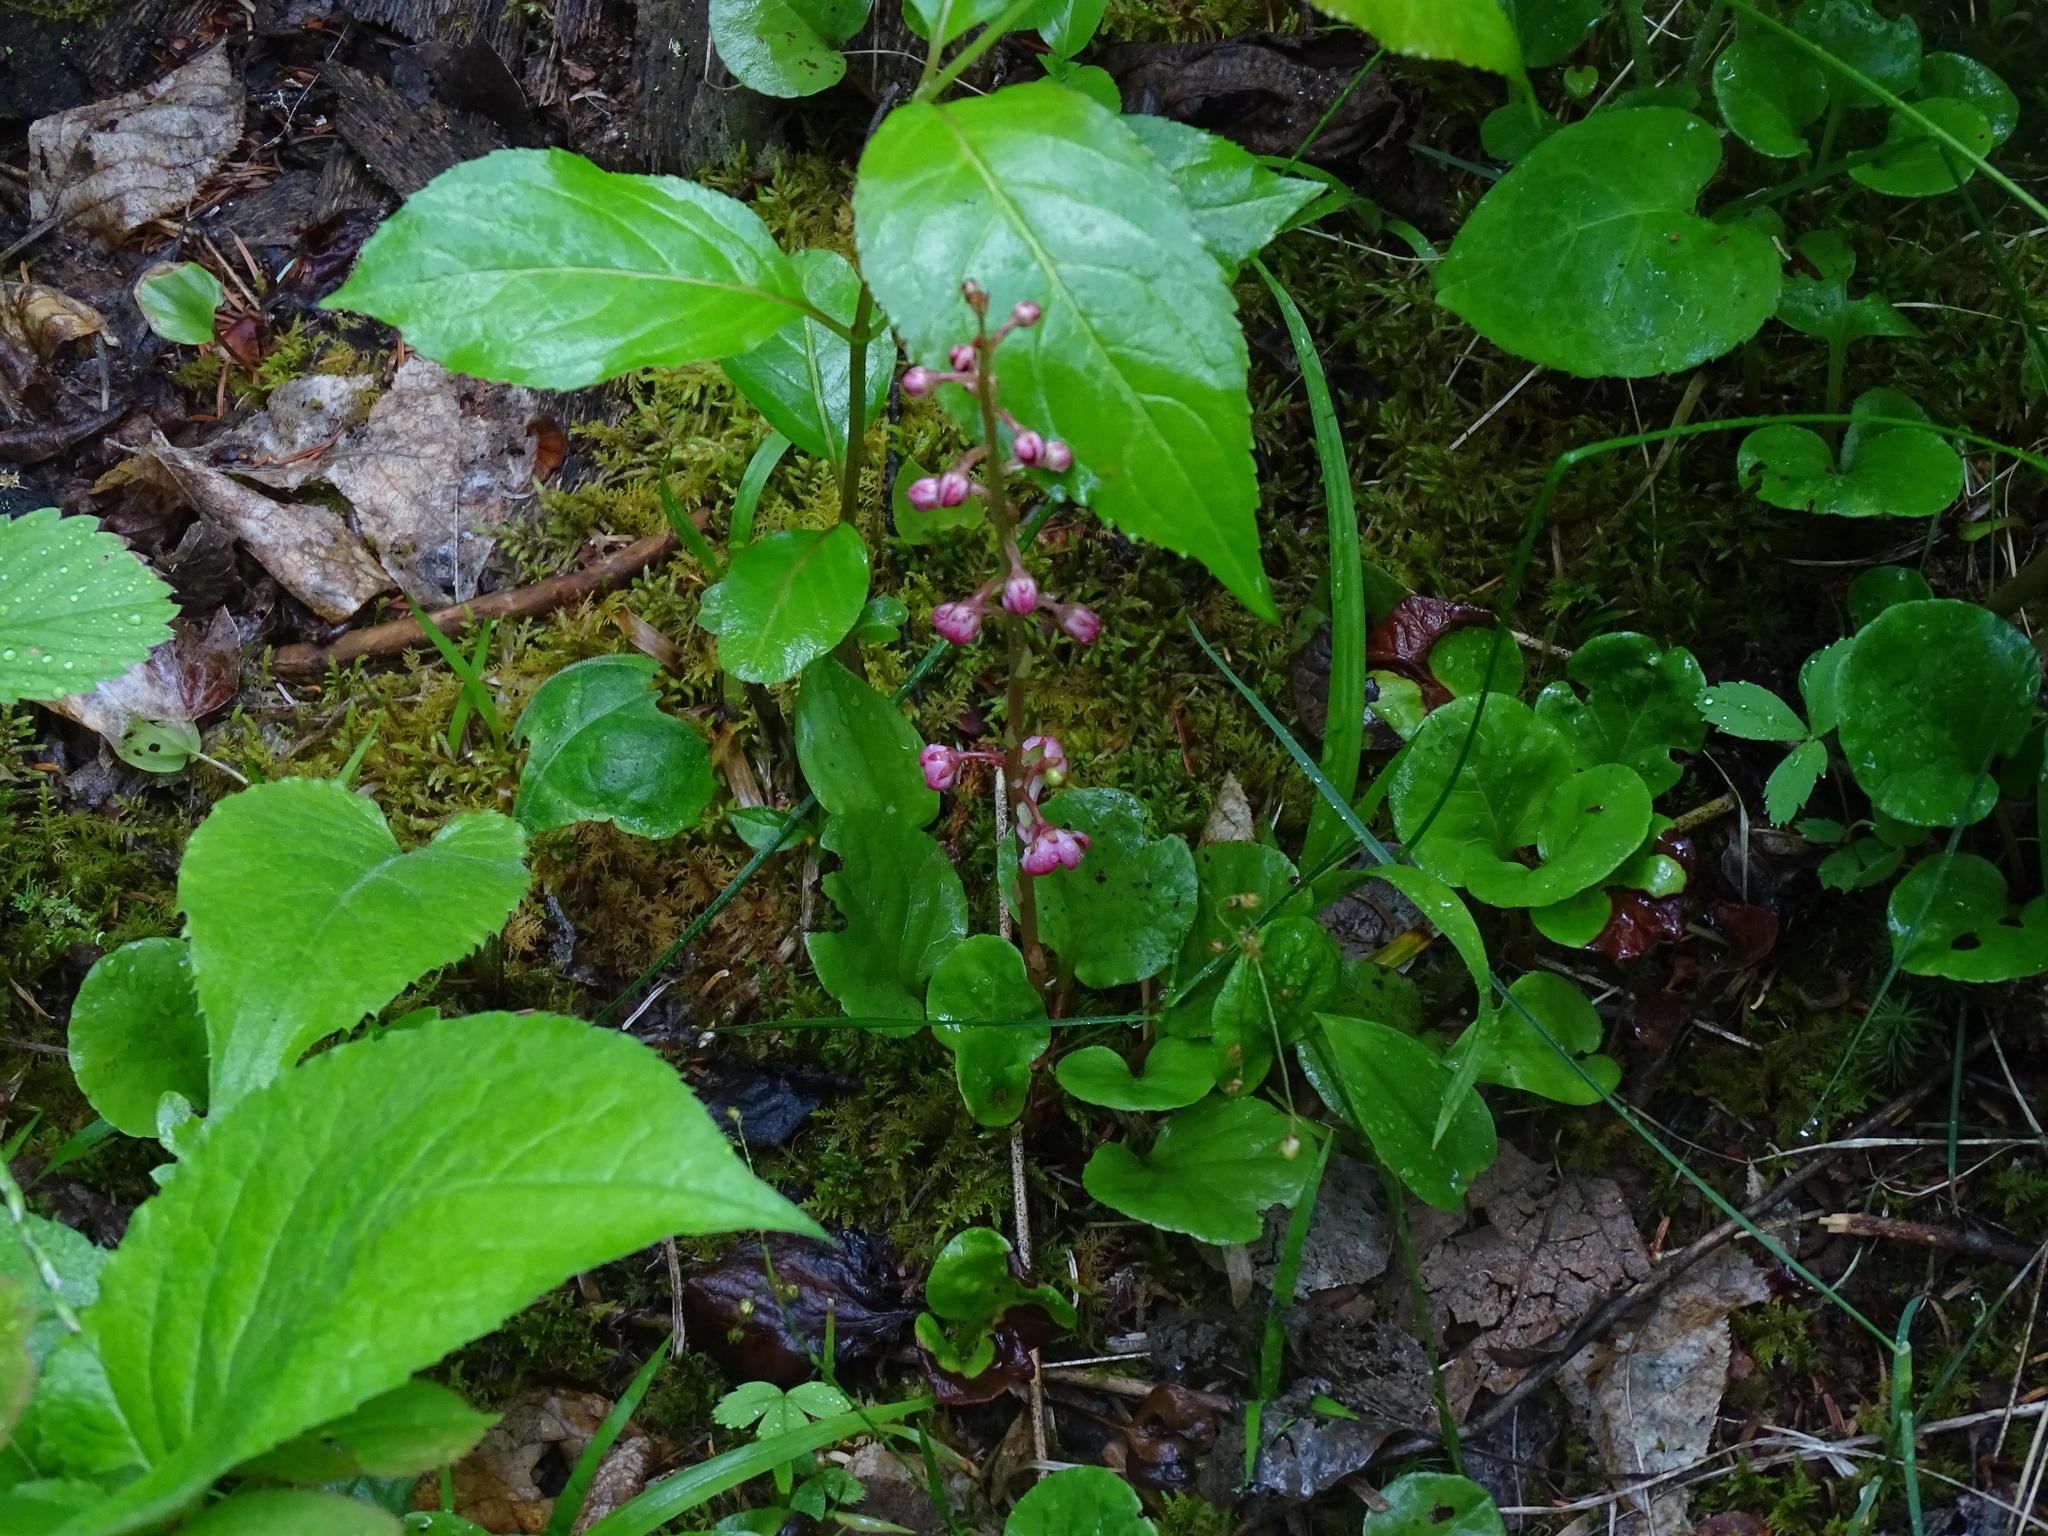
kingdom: Plantae
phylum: Tracheophyta
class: Magnoliopsida
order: Ericales
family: Ericaceae
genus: Pyrola
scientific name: Pyrola asarifolia
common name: Bog wintergreen
